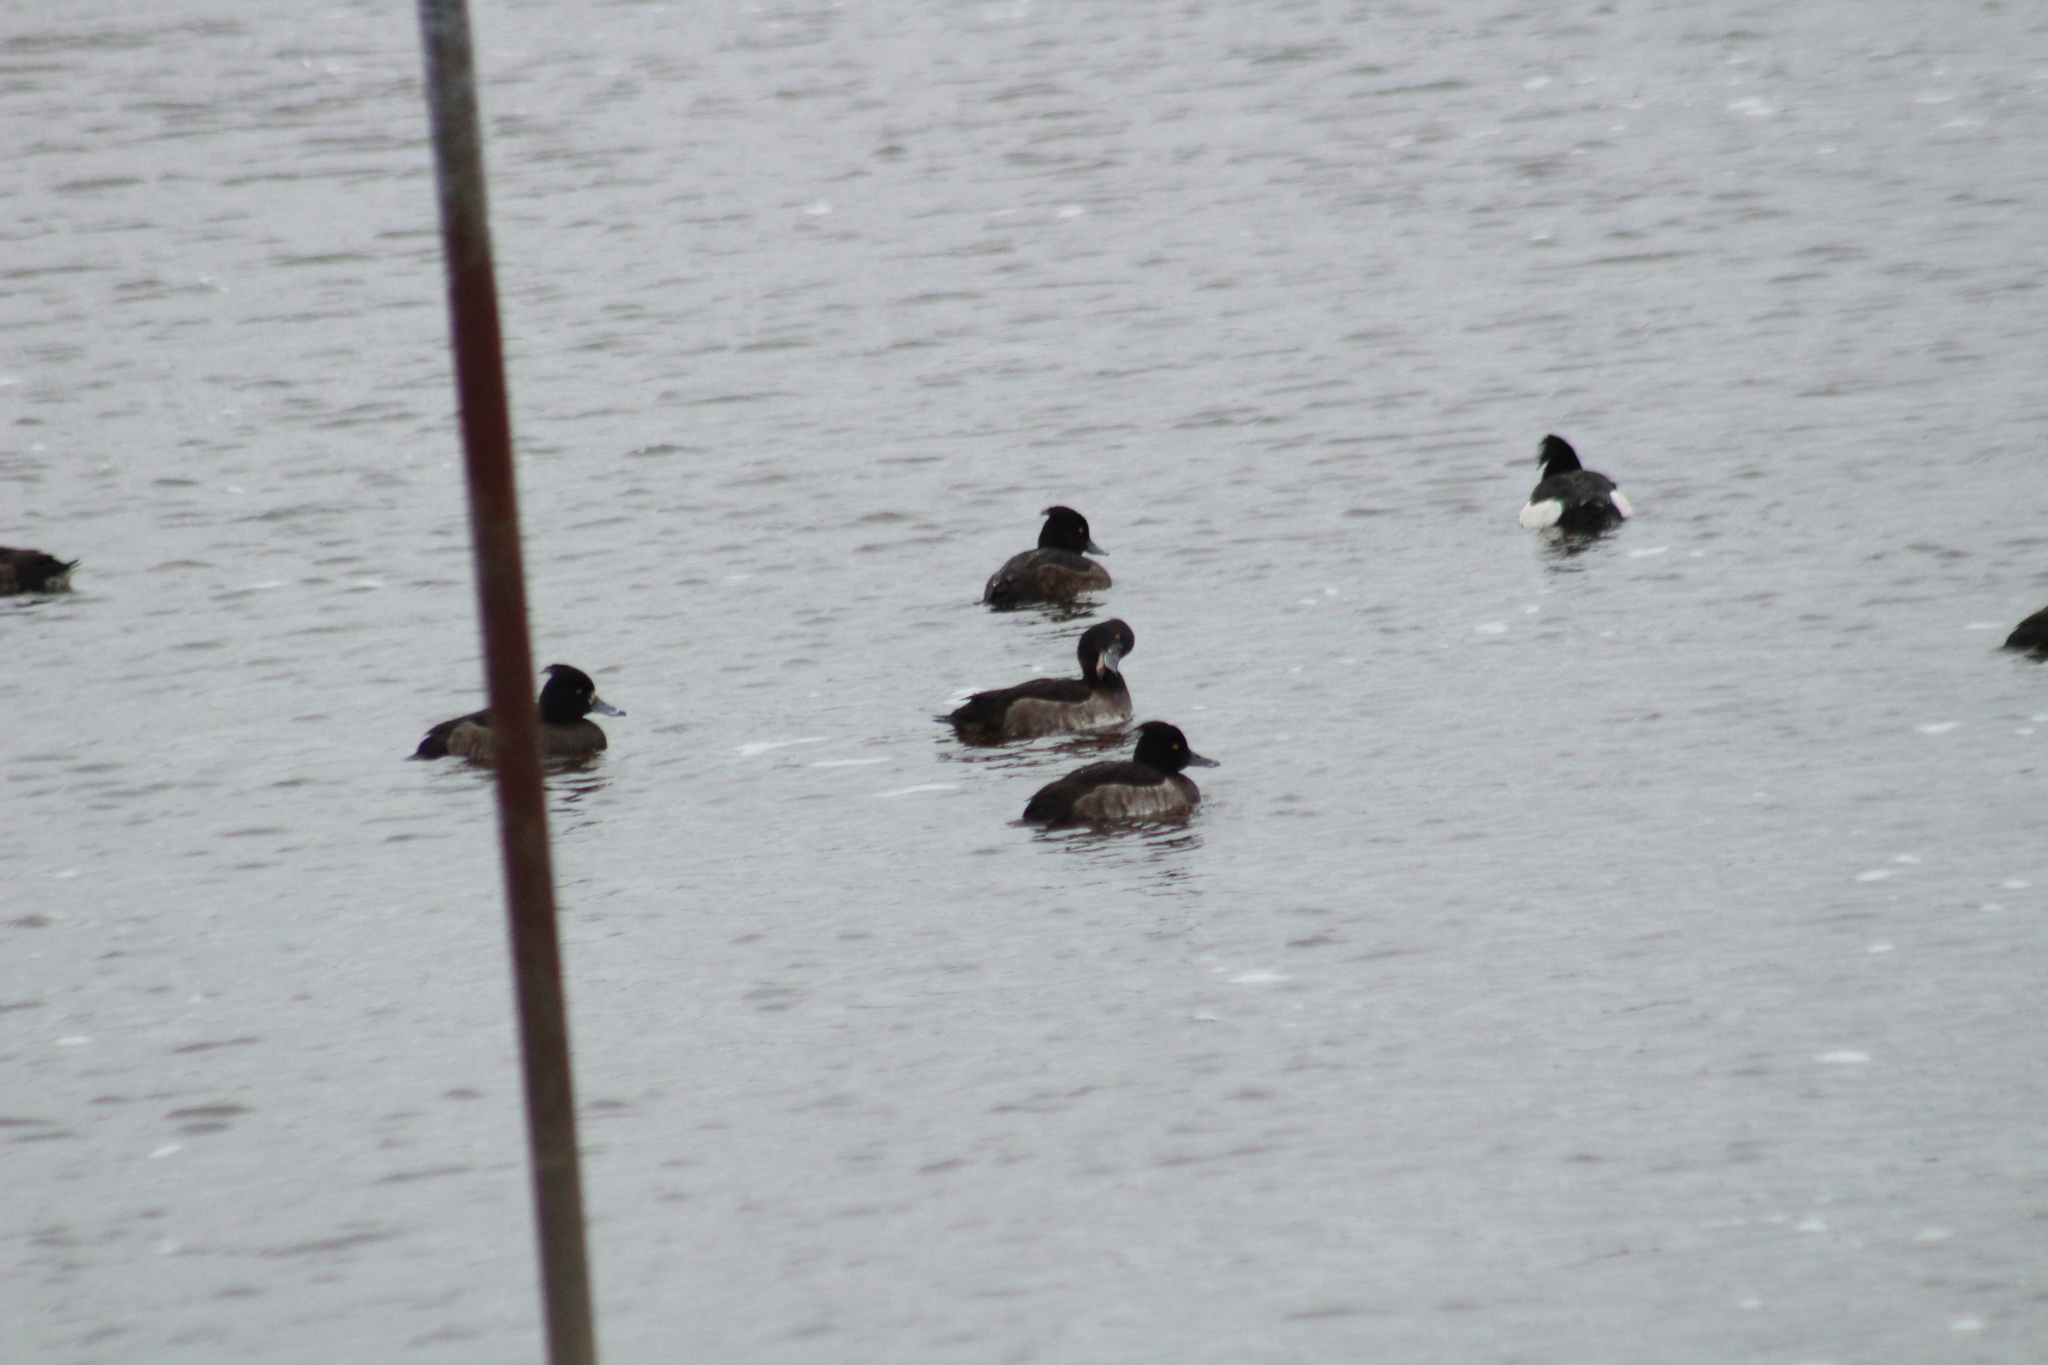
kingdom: Animalia
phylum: Chordata
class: Aves
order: Anseriformes
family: Anatidae
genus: Aythya
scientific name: Aythya fuligula
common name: Tufted duck
